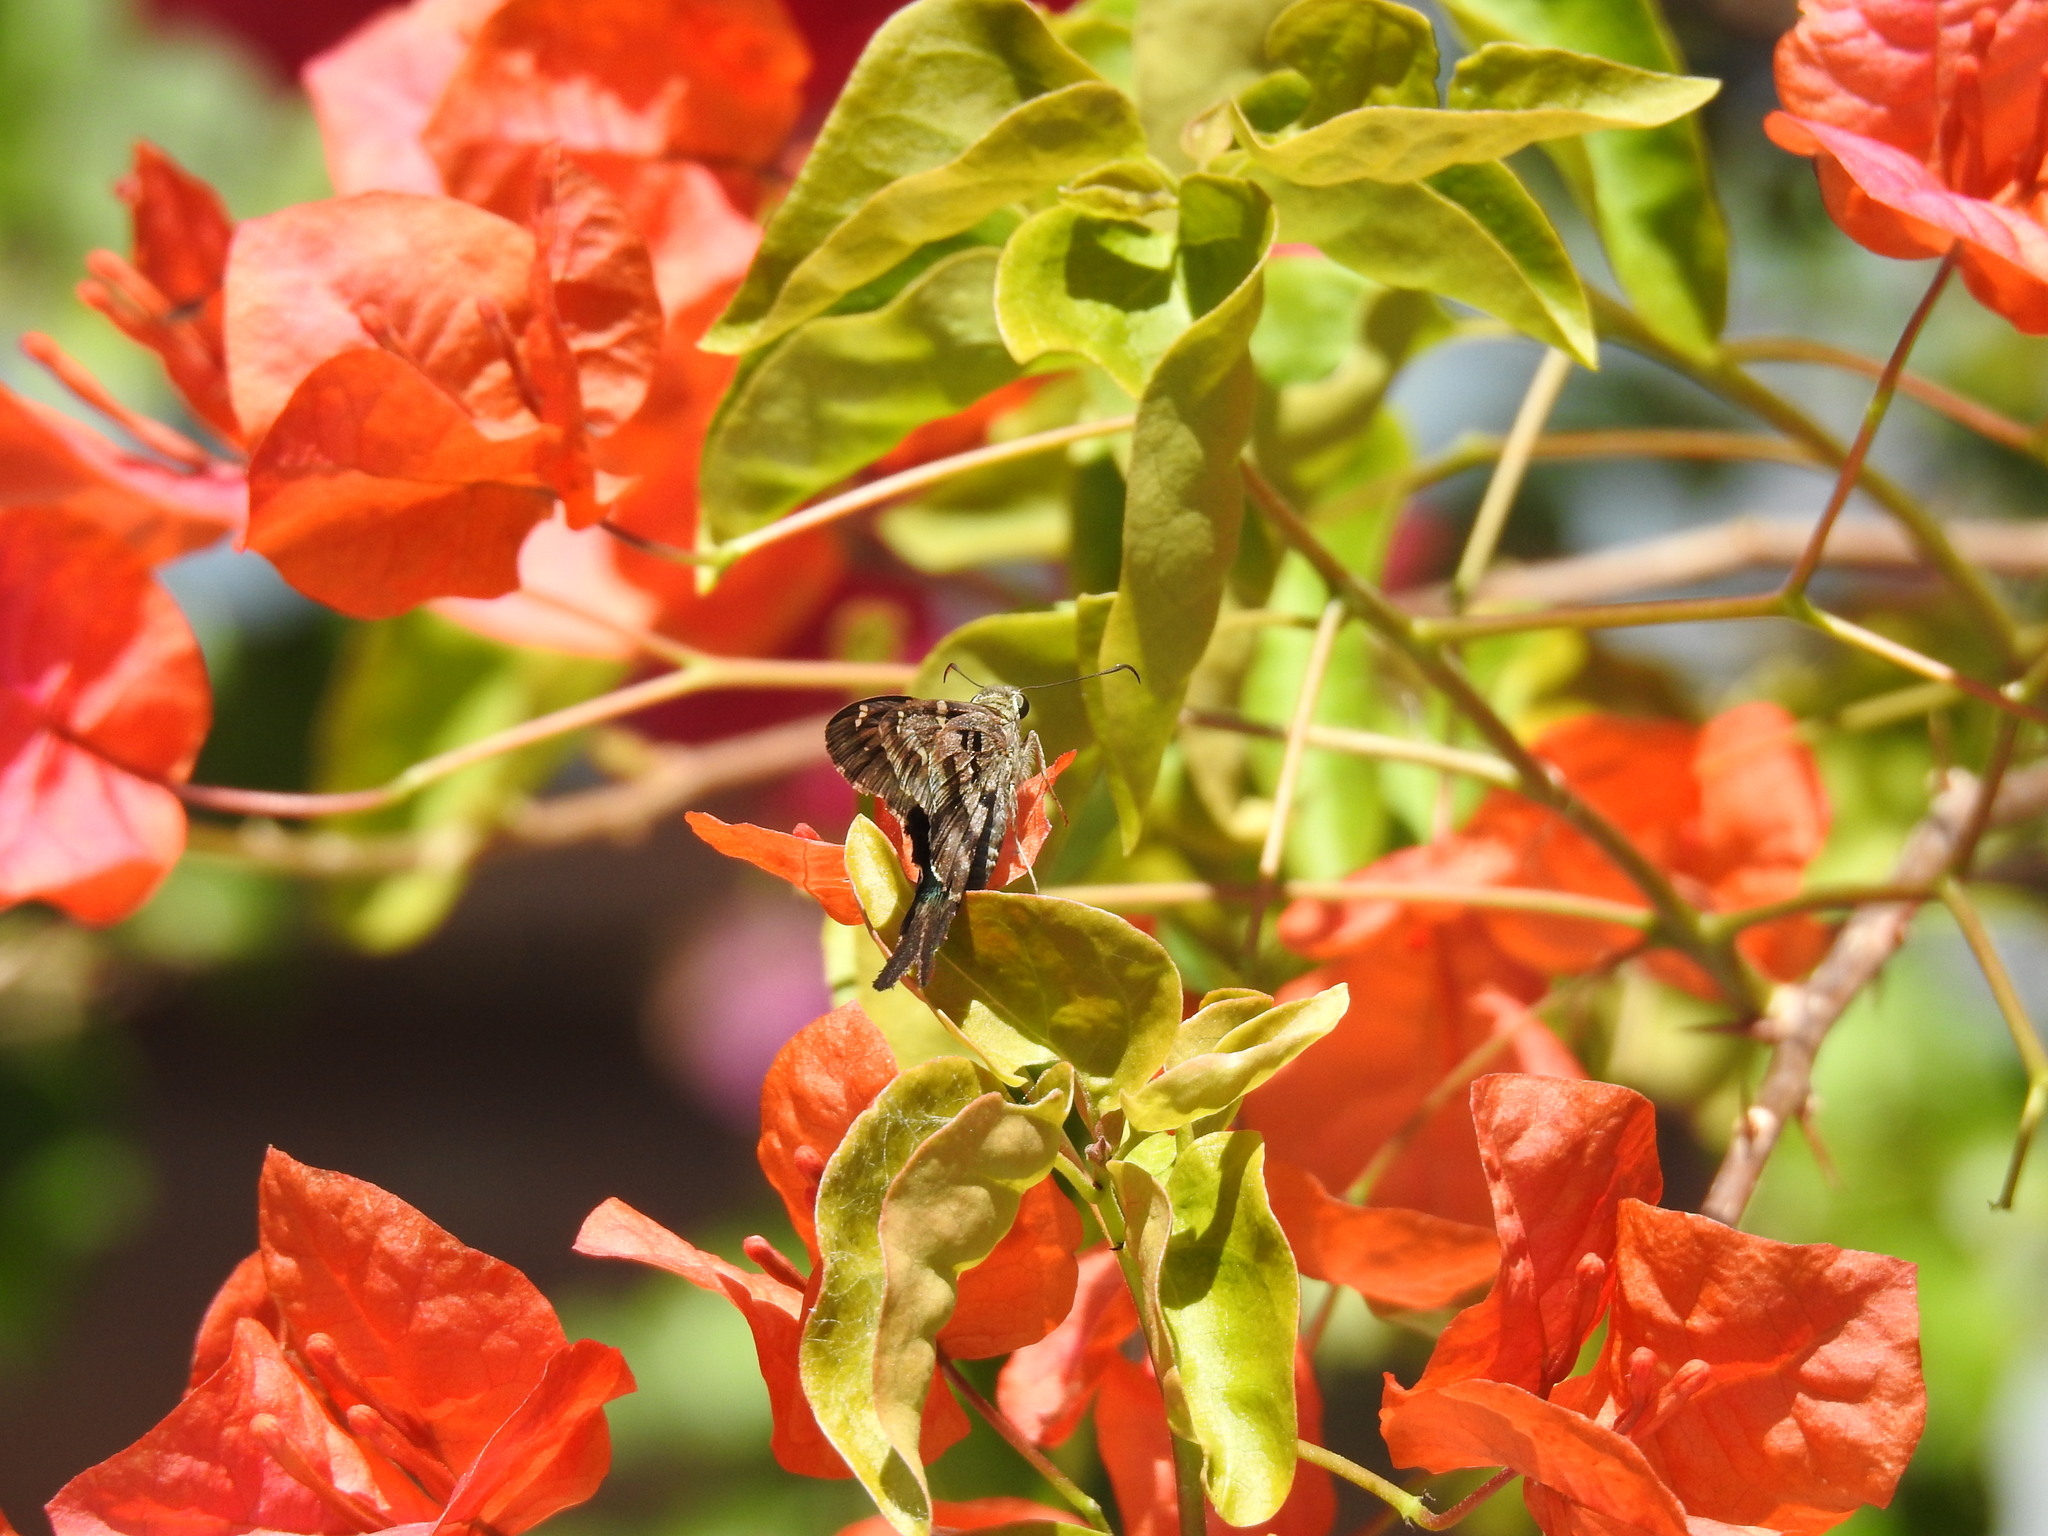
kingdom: Animalia
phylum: Arthropoda
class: Insecta
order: Lepidoptera
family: Hesperiidae
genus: Urbanus
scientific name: Urbanus proteus
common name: Long-tailed skipper
